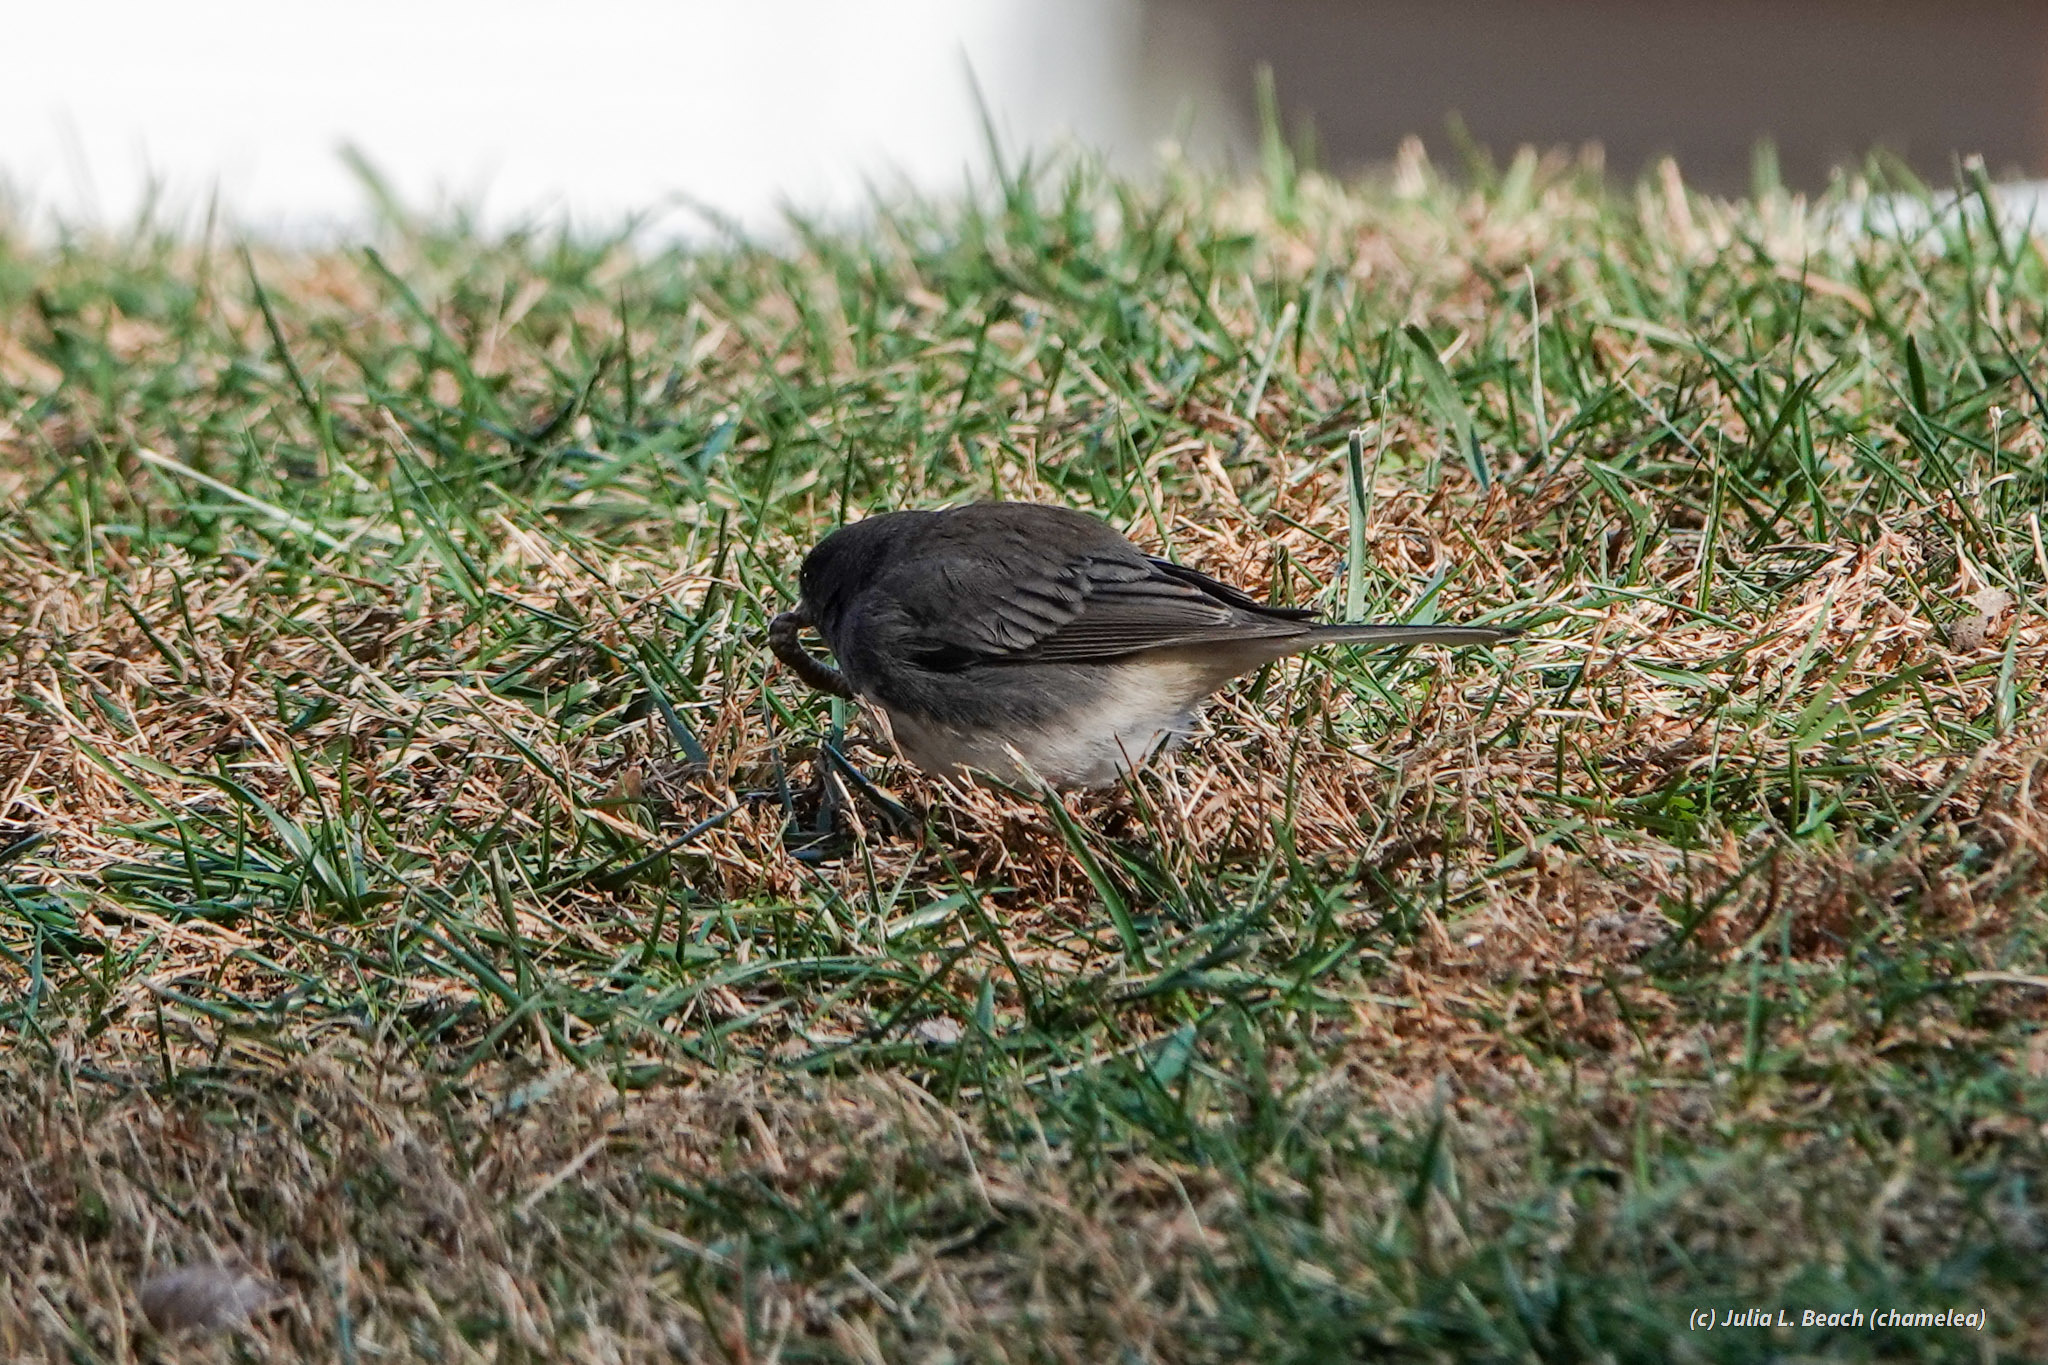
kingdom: Animalia
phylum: Chordata
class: Aves
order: Passeriformes
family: Passerellidae
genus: Junco
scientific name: Junco hyemalis
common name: Dark-eyed junco
